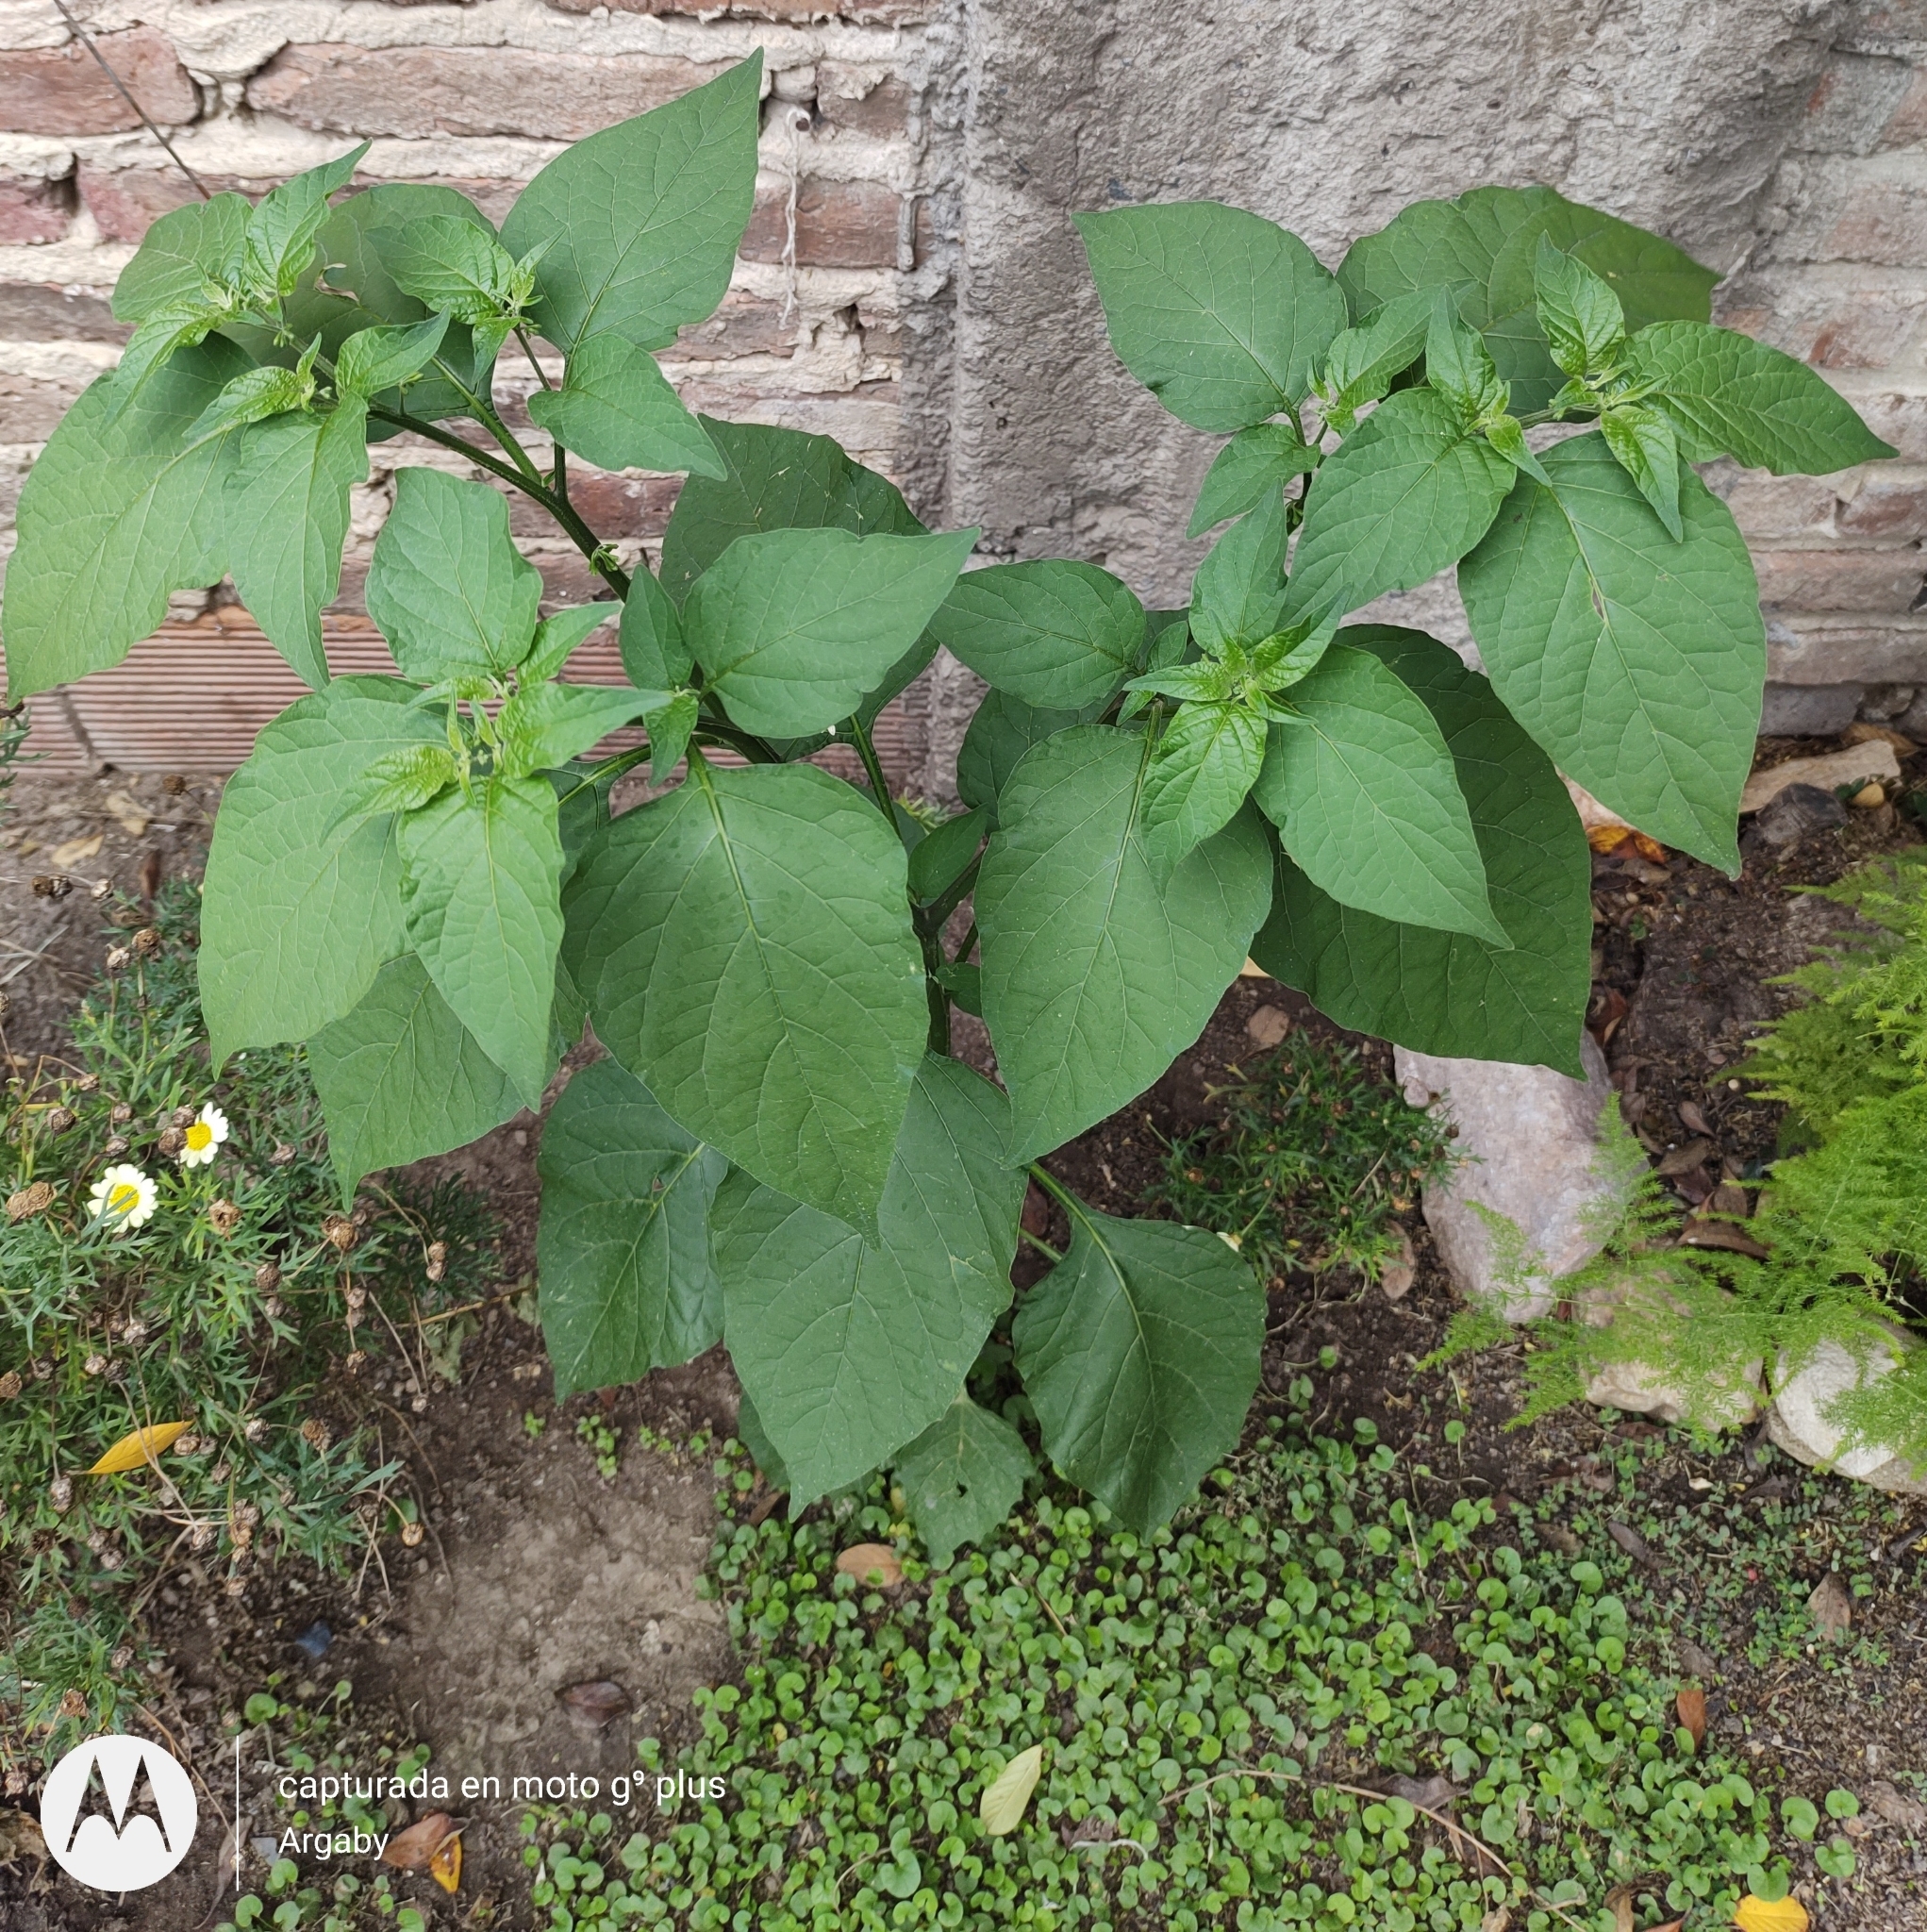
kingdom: Plantae
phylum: Tracheophyta
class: Magnoliopsida
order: Solanales
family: Solanaceae
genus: Solanum
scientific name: Solanum americanum
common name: American black nightshade
